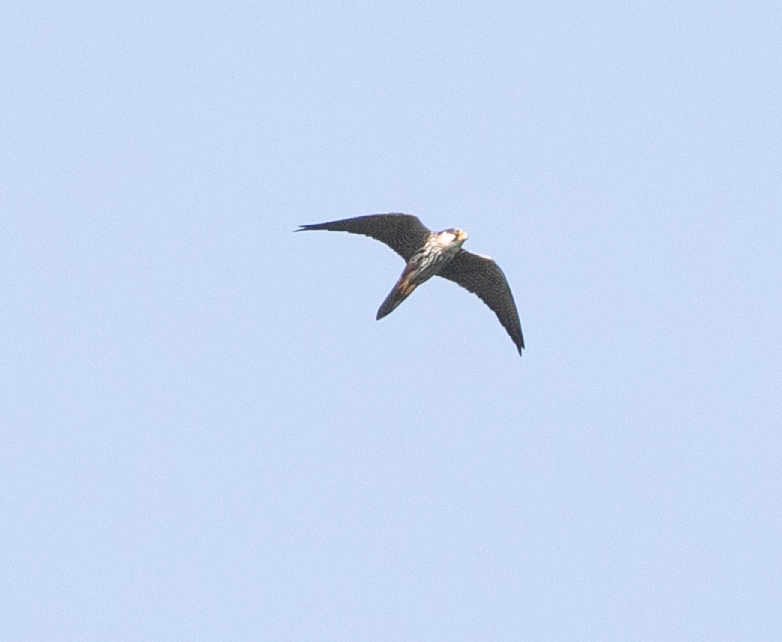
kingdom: Animalia
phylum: Chordata
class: Aves
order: Falconiformes
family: Falconidae
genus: Falco
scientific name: Falco subbuteo
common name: Eurasian hobby
